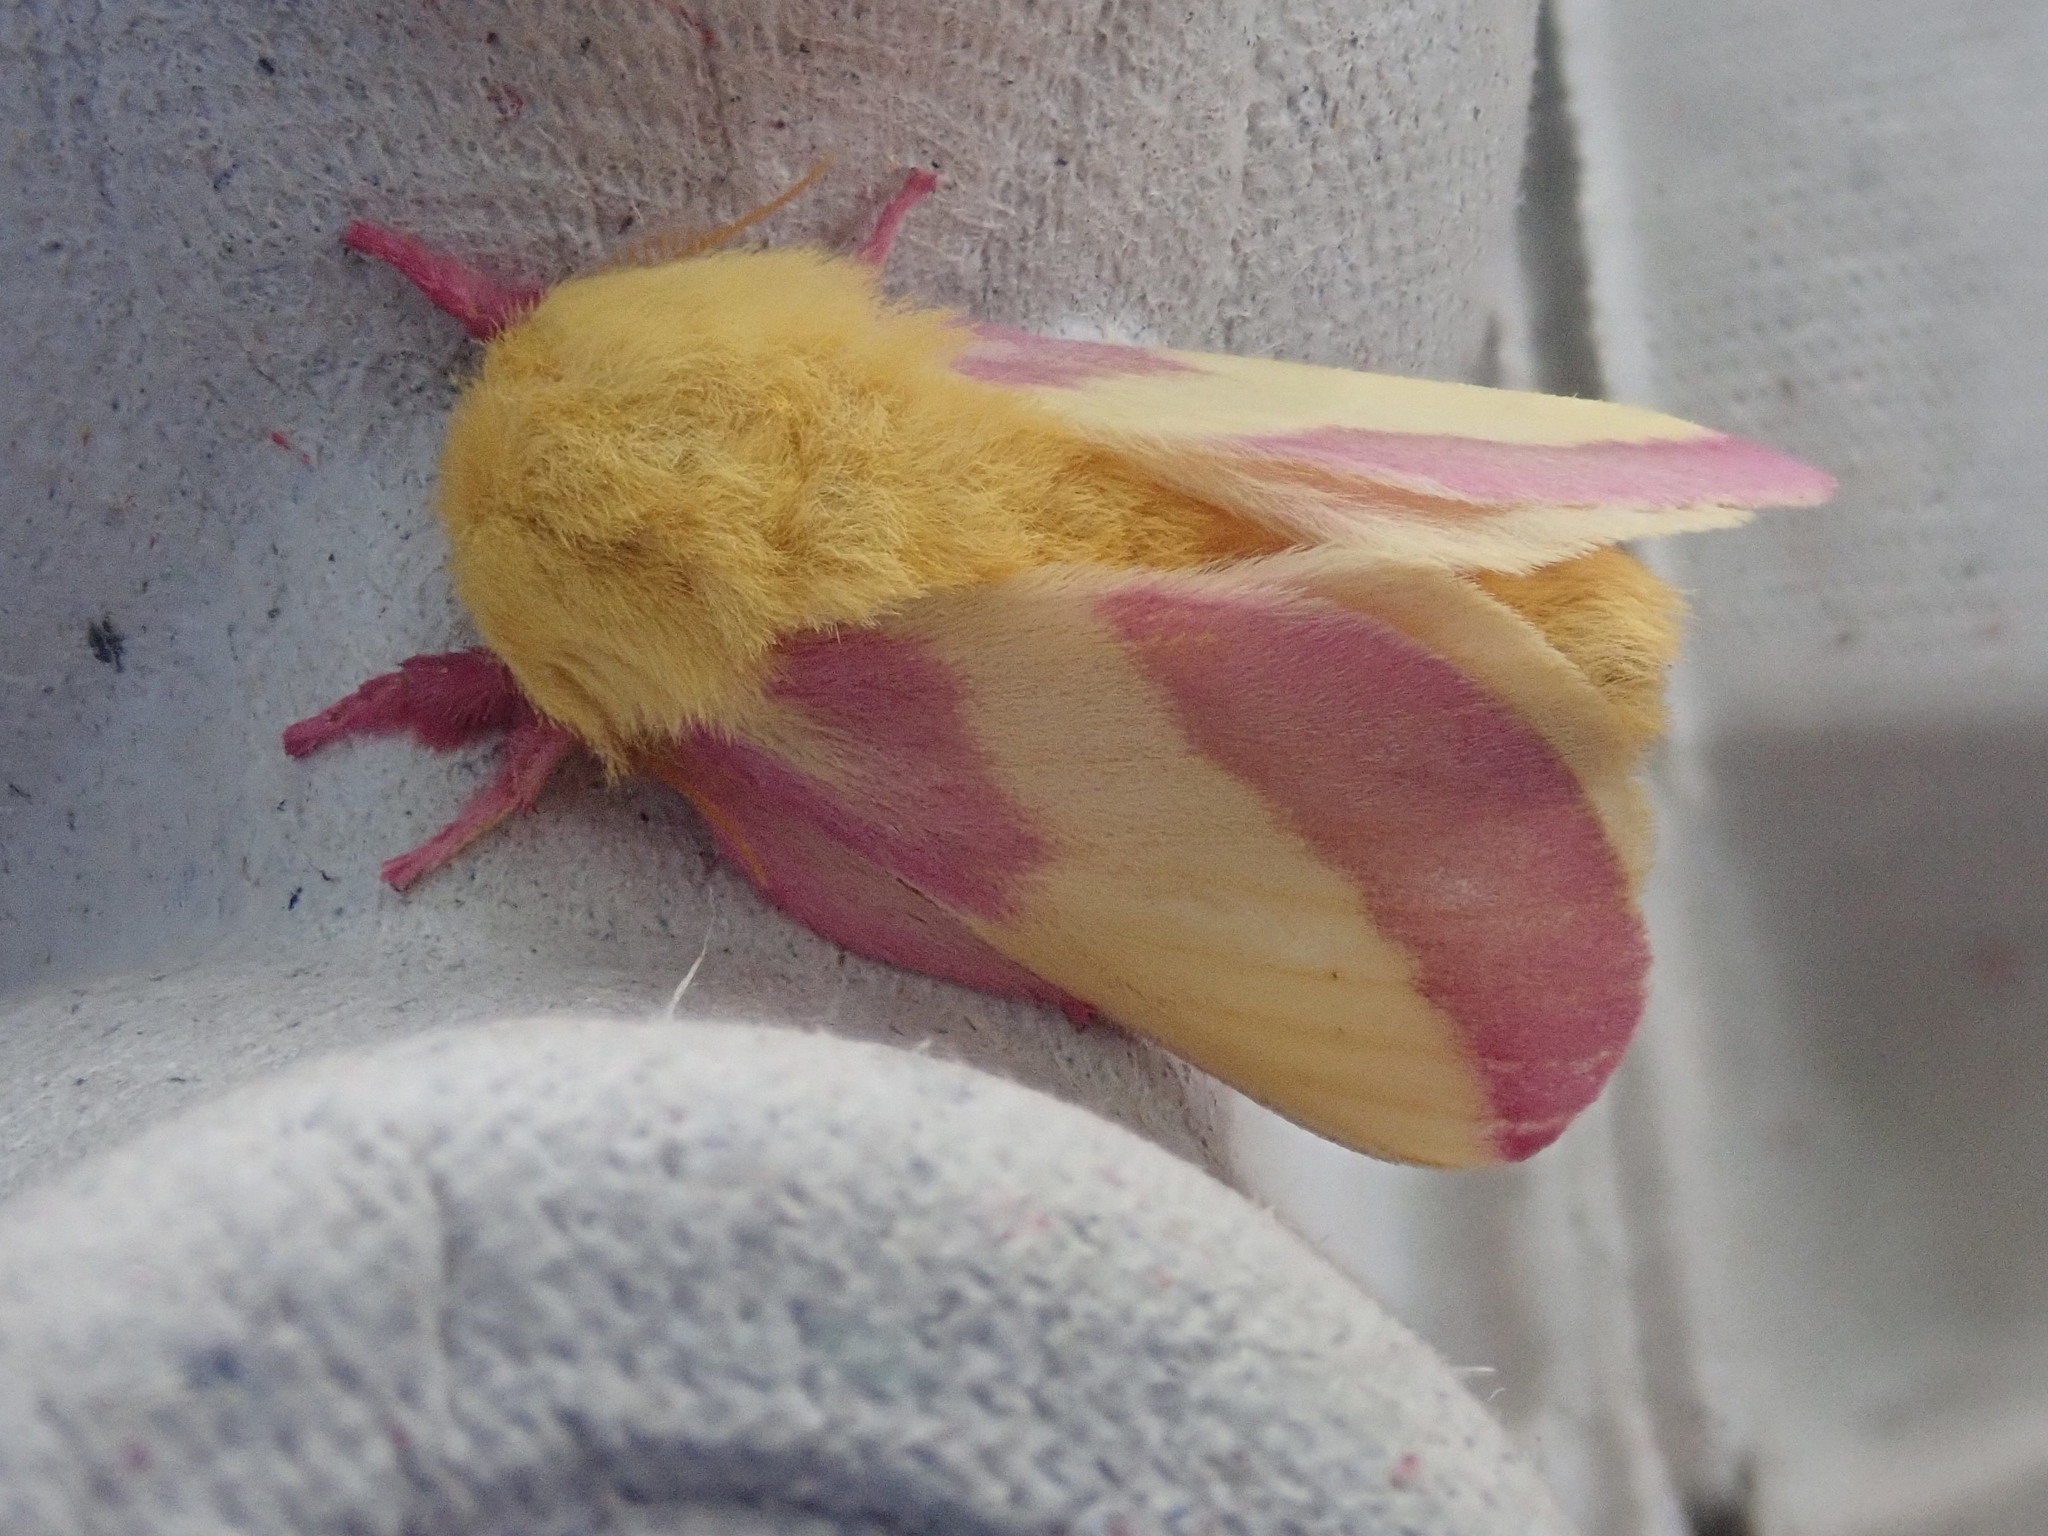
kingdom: Animalia
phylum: Arthropoda
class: Insecta
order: Lepidoptera
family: Saturniidae
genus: Dryocampa
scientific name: Dryocampa rubicunda
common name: Rosy maple moth
